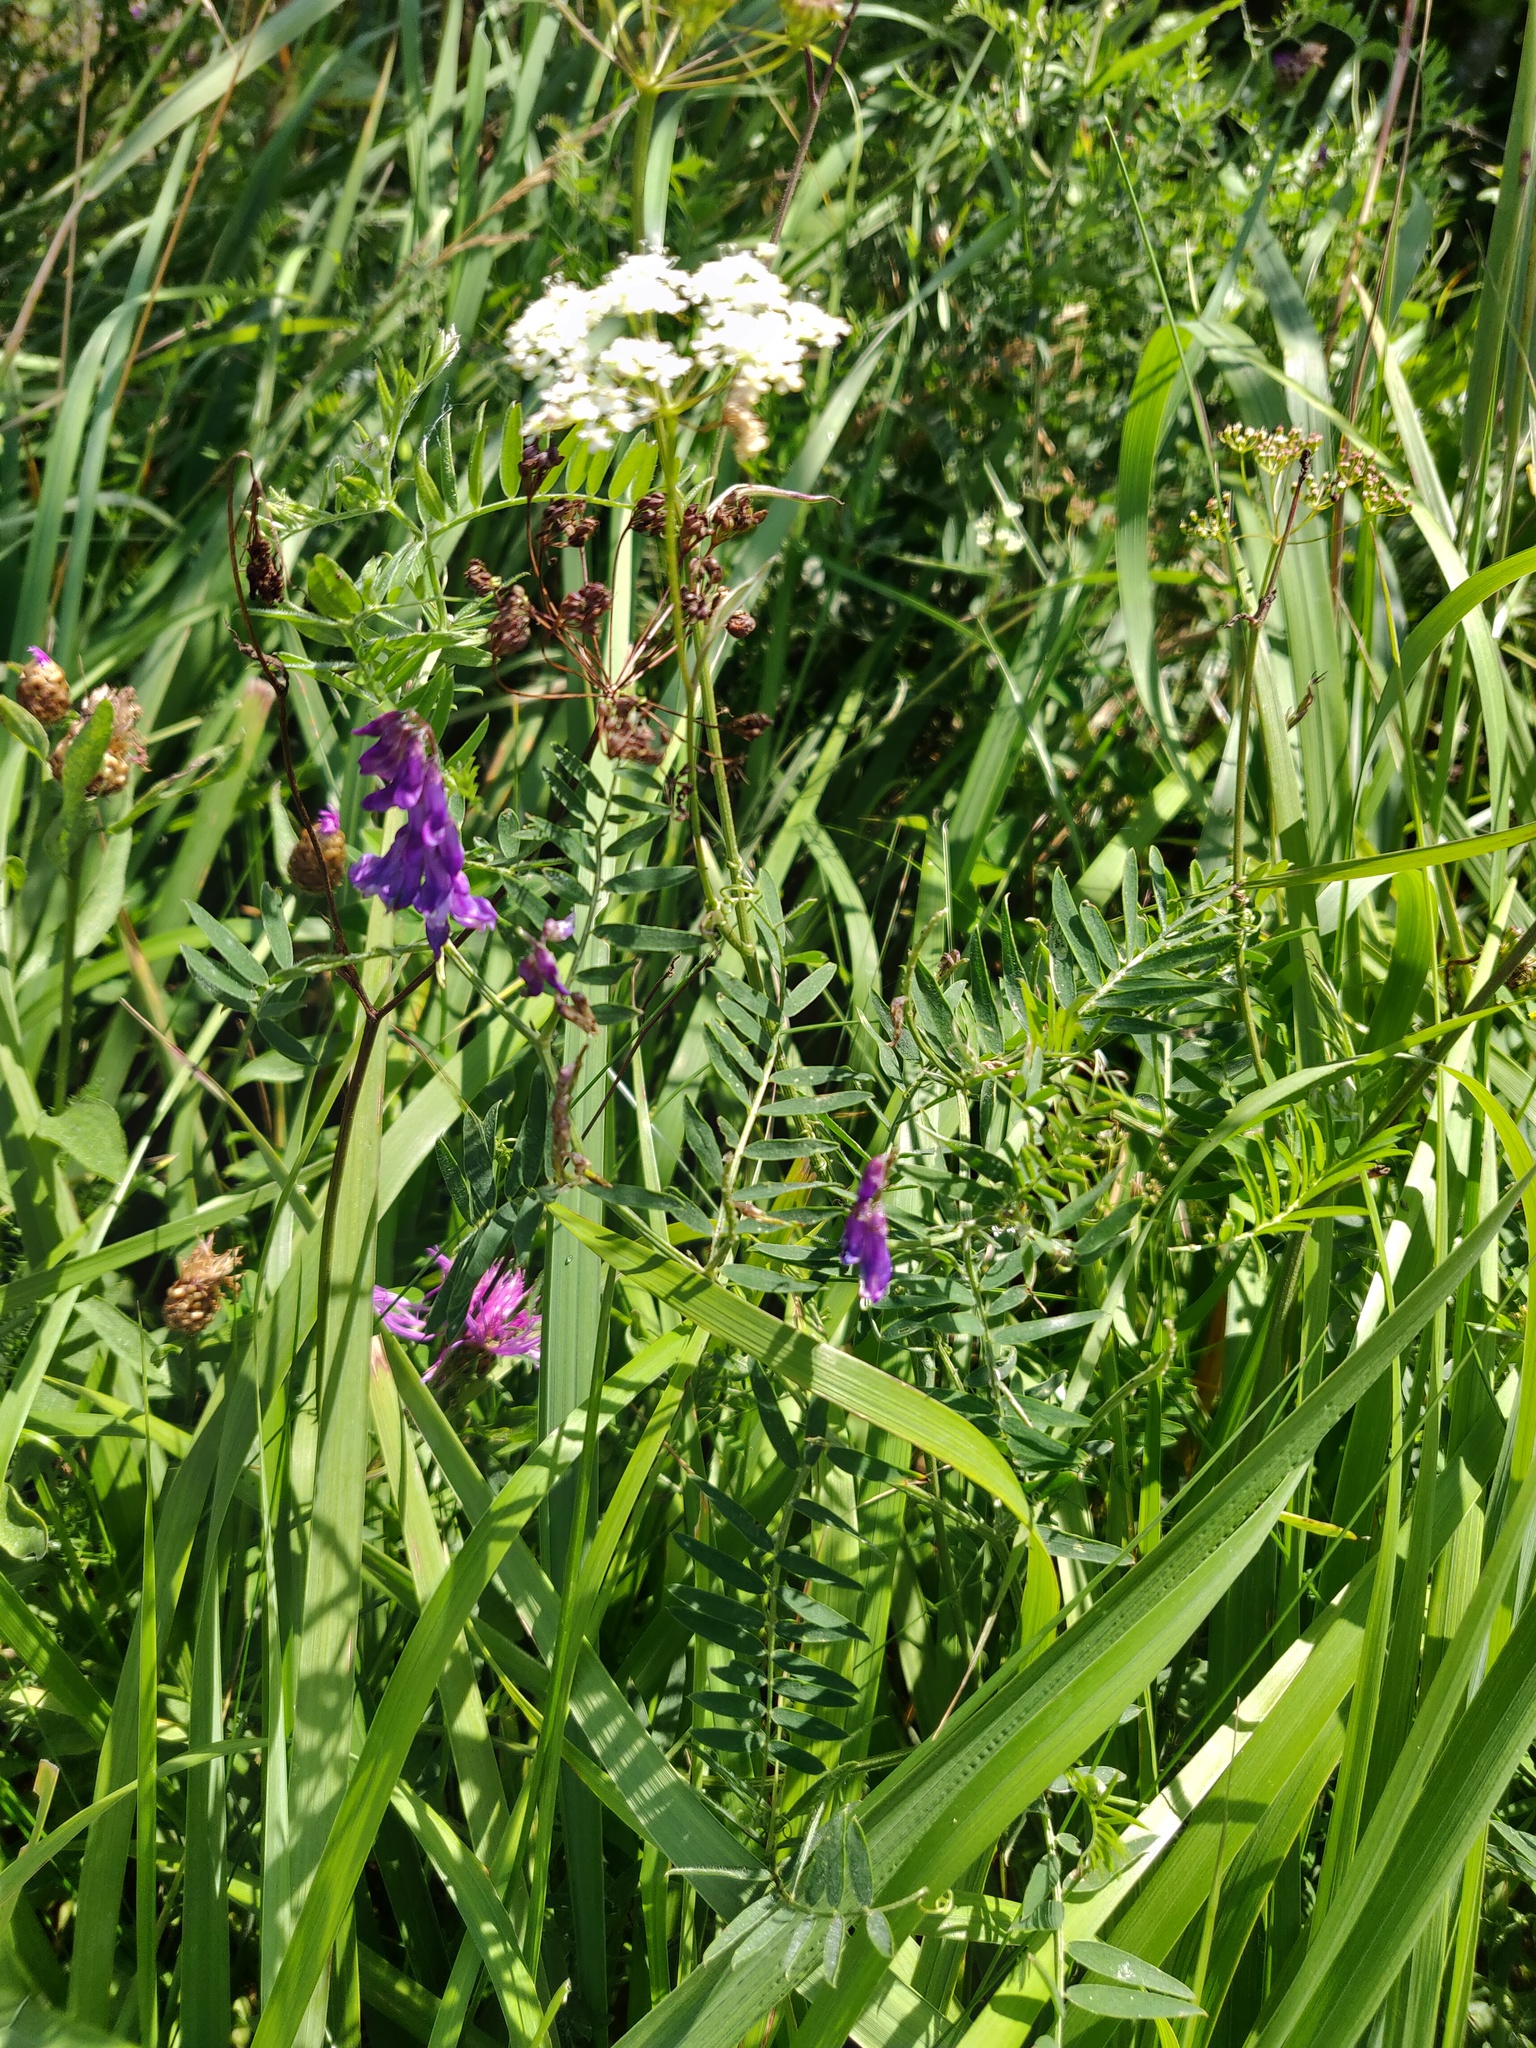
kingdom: Plantae
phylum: Tracheophyta
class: Magnoliopsida
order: Fabales
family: Fabaceae
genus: Vicia
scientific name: Vicia cracca
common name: Bird vetch
